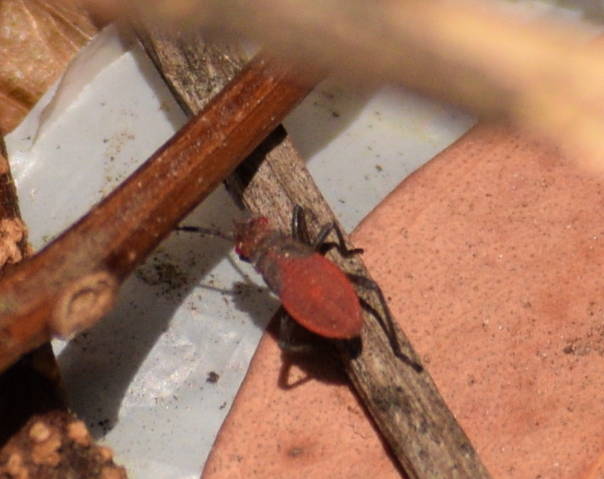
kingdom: Animalia
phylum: Arthropoda
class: Insecta
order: Hemiptera
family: Rhopalidae
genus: Jadera
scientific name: Jadera haematoloma
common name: Red-shouldered bug
